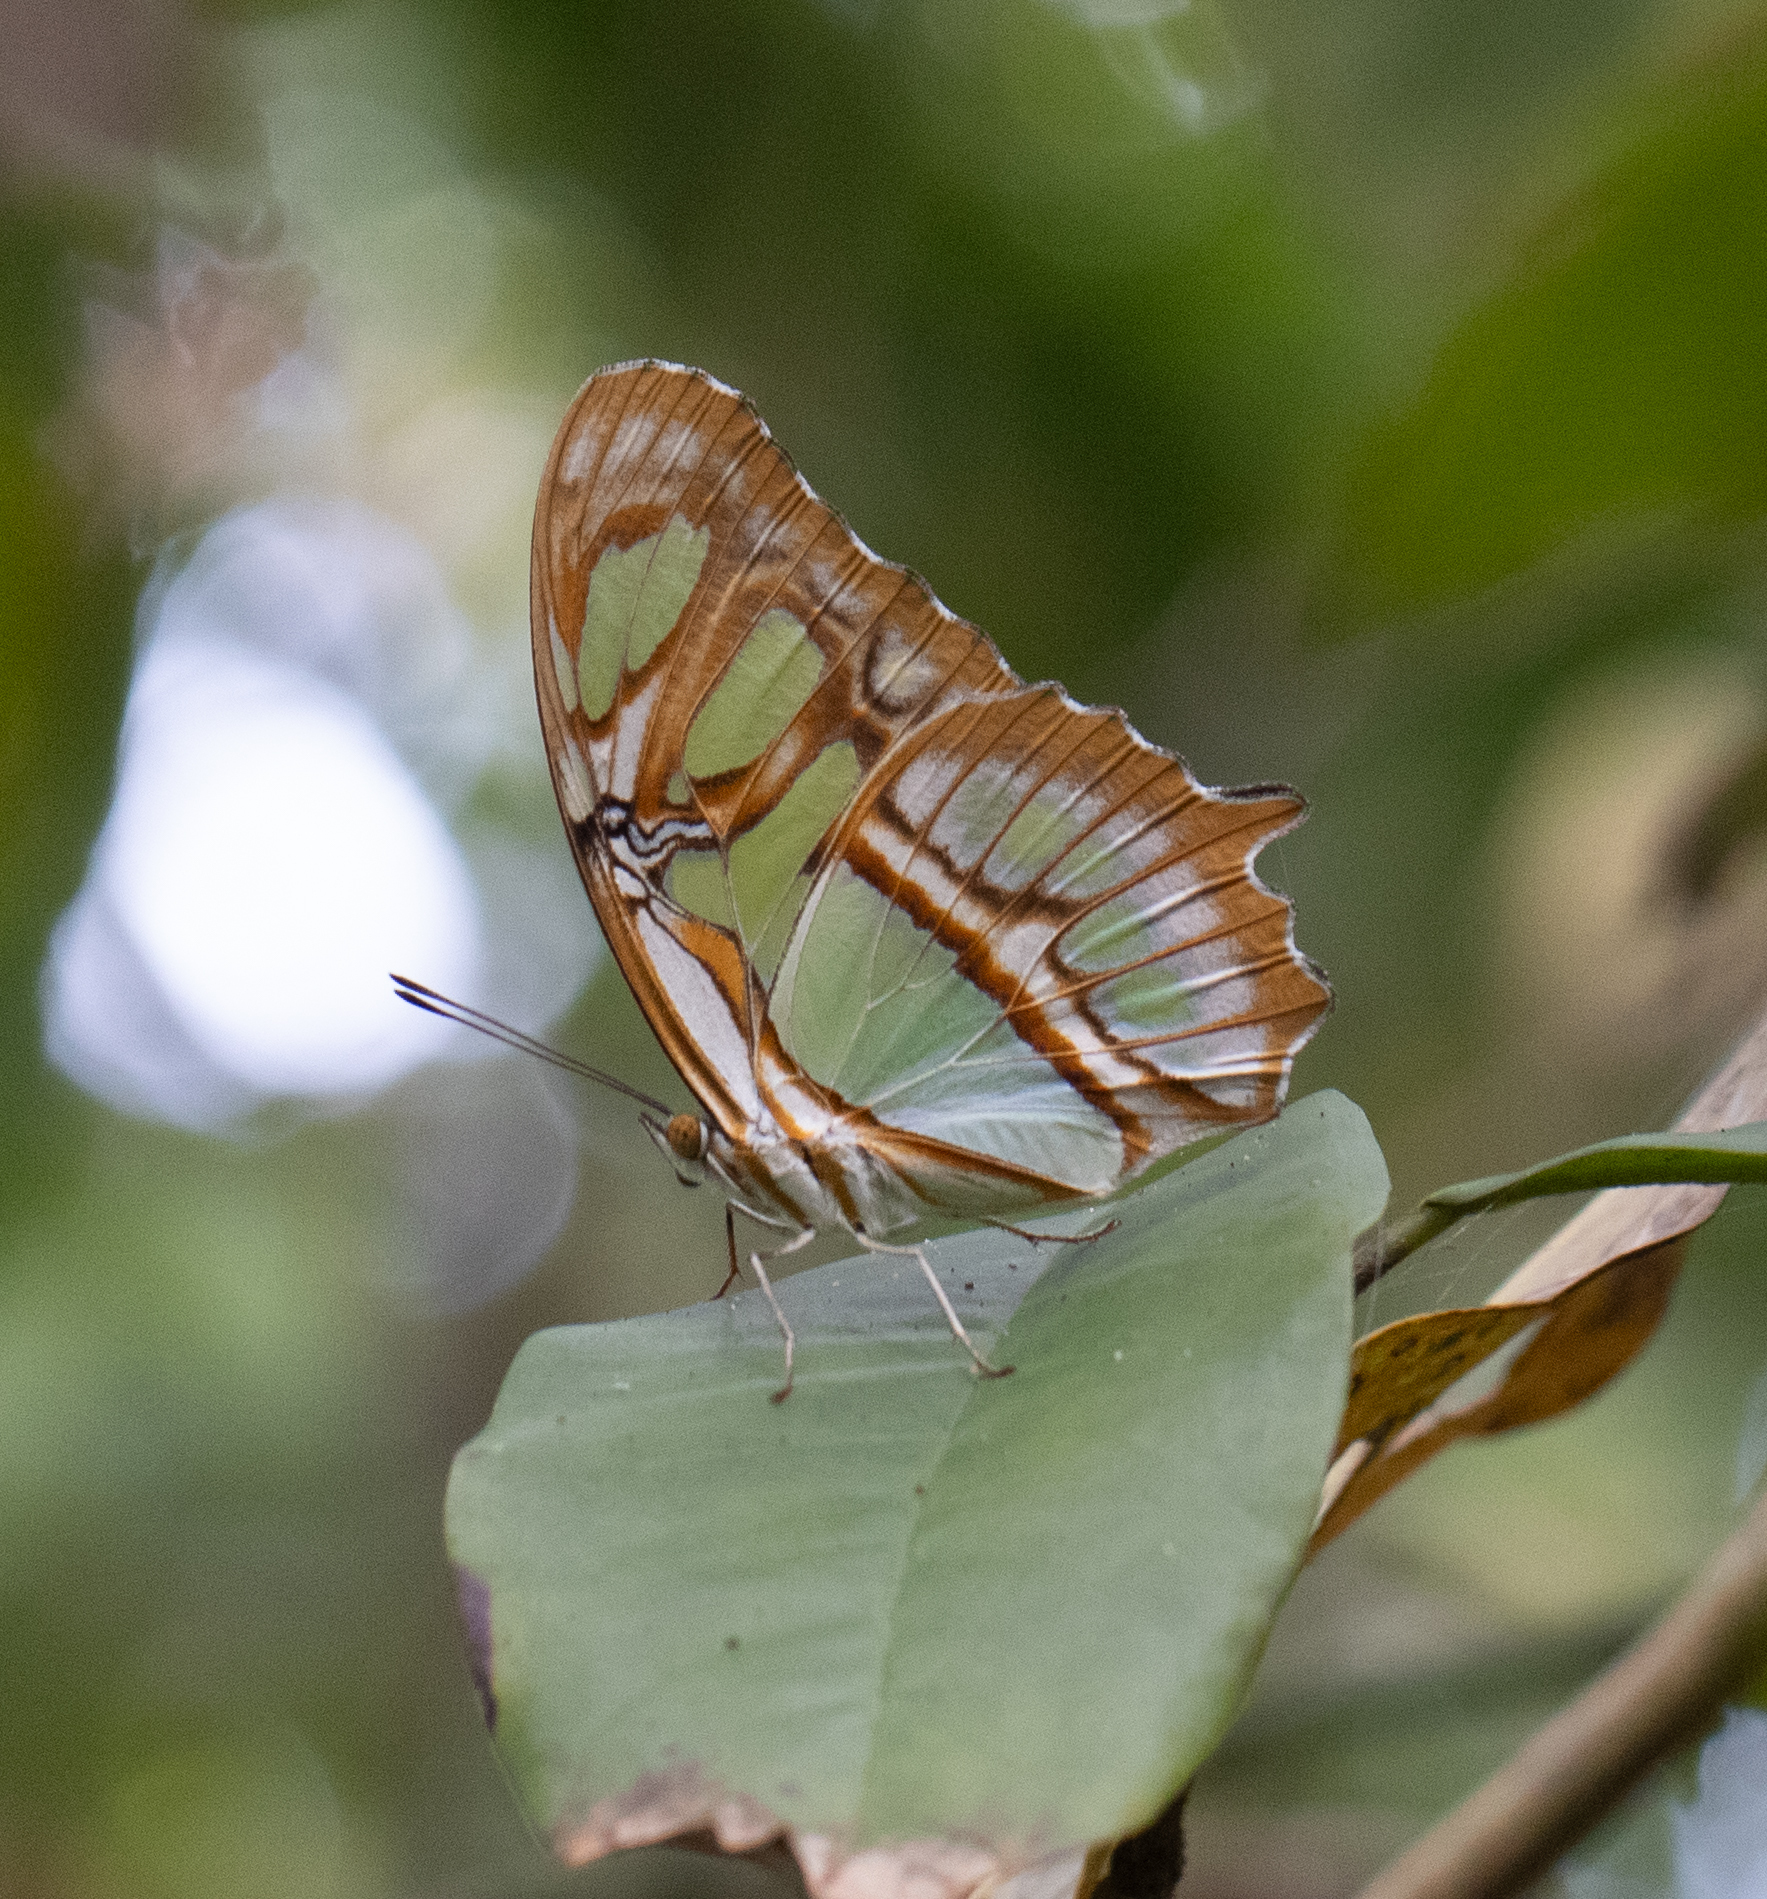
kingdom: Animalia
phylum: Arthropoda
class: Insecta
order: Lepidoptera
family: Nymphalidae
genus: Siproeta
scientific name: Siproeta stelenes
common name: Malachite
